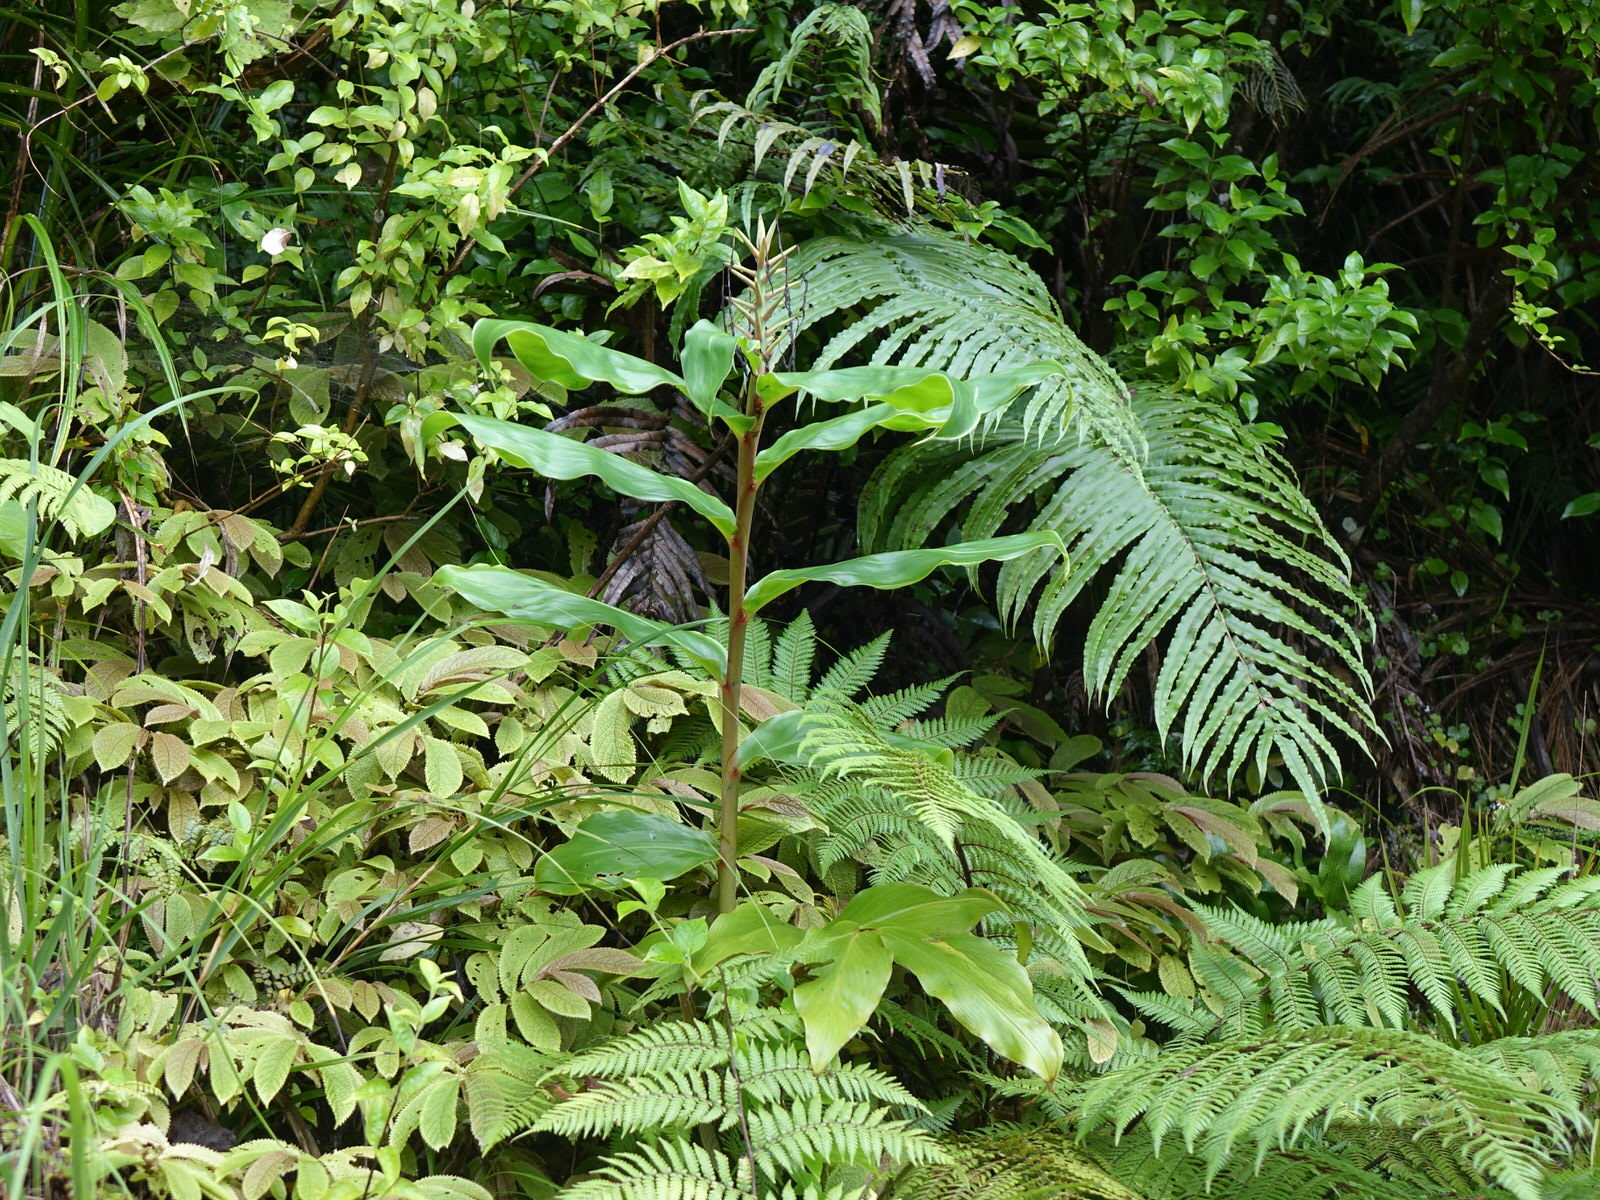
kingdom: Plantae
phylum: Tracheophyta
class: Liliopsida
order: Zingiberales
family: Zingiberaceae
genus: Hedychium
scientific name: Hedychium gardnerianum
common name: Himalayan ginger
